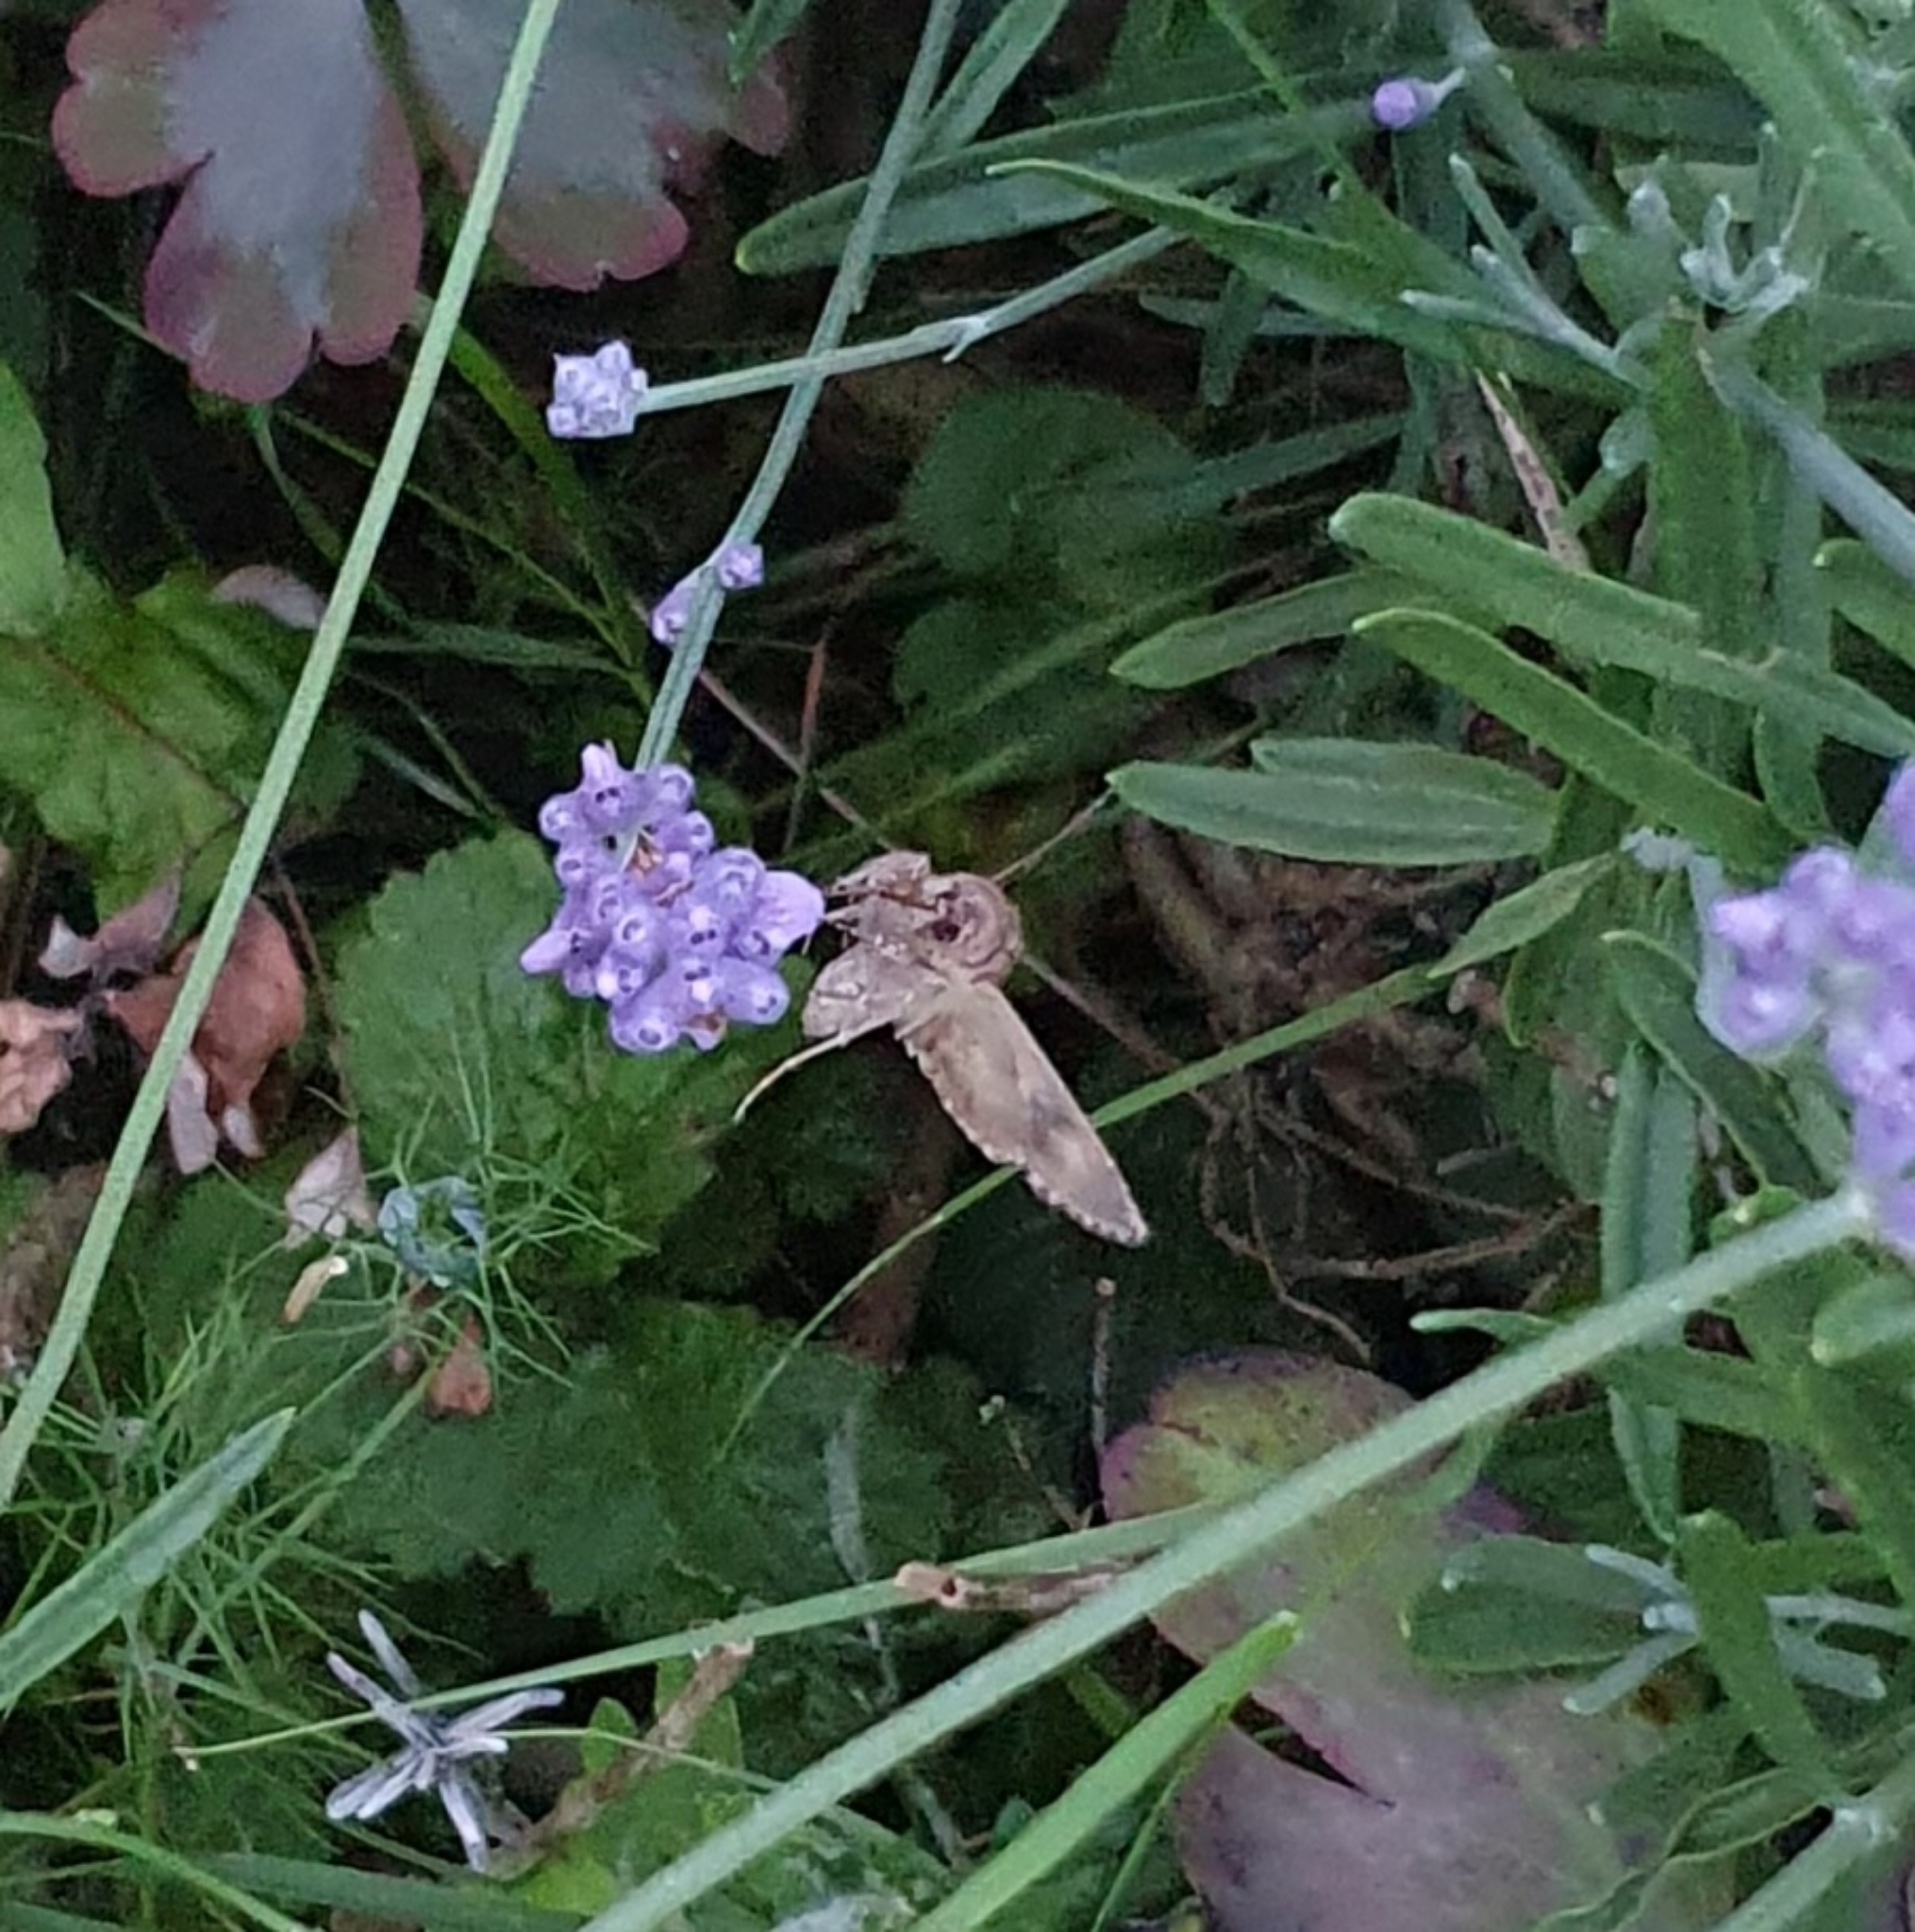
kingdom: Animalia
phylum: Arthropoda
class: Insecta
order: Lepidoptera
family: Noctuidae
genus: Autographa
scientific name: Autographa gamma
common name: Silver y
